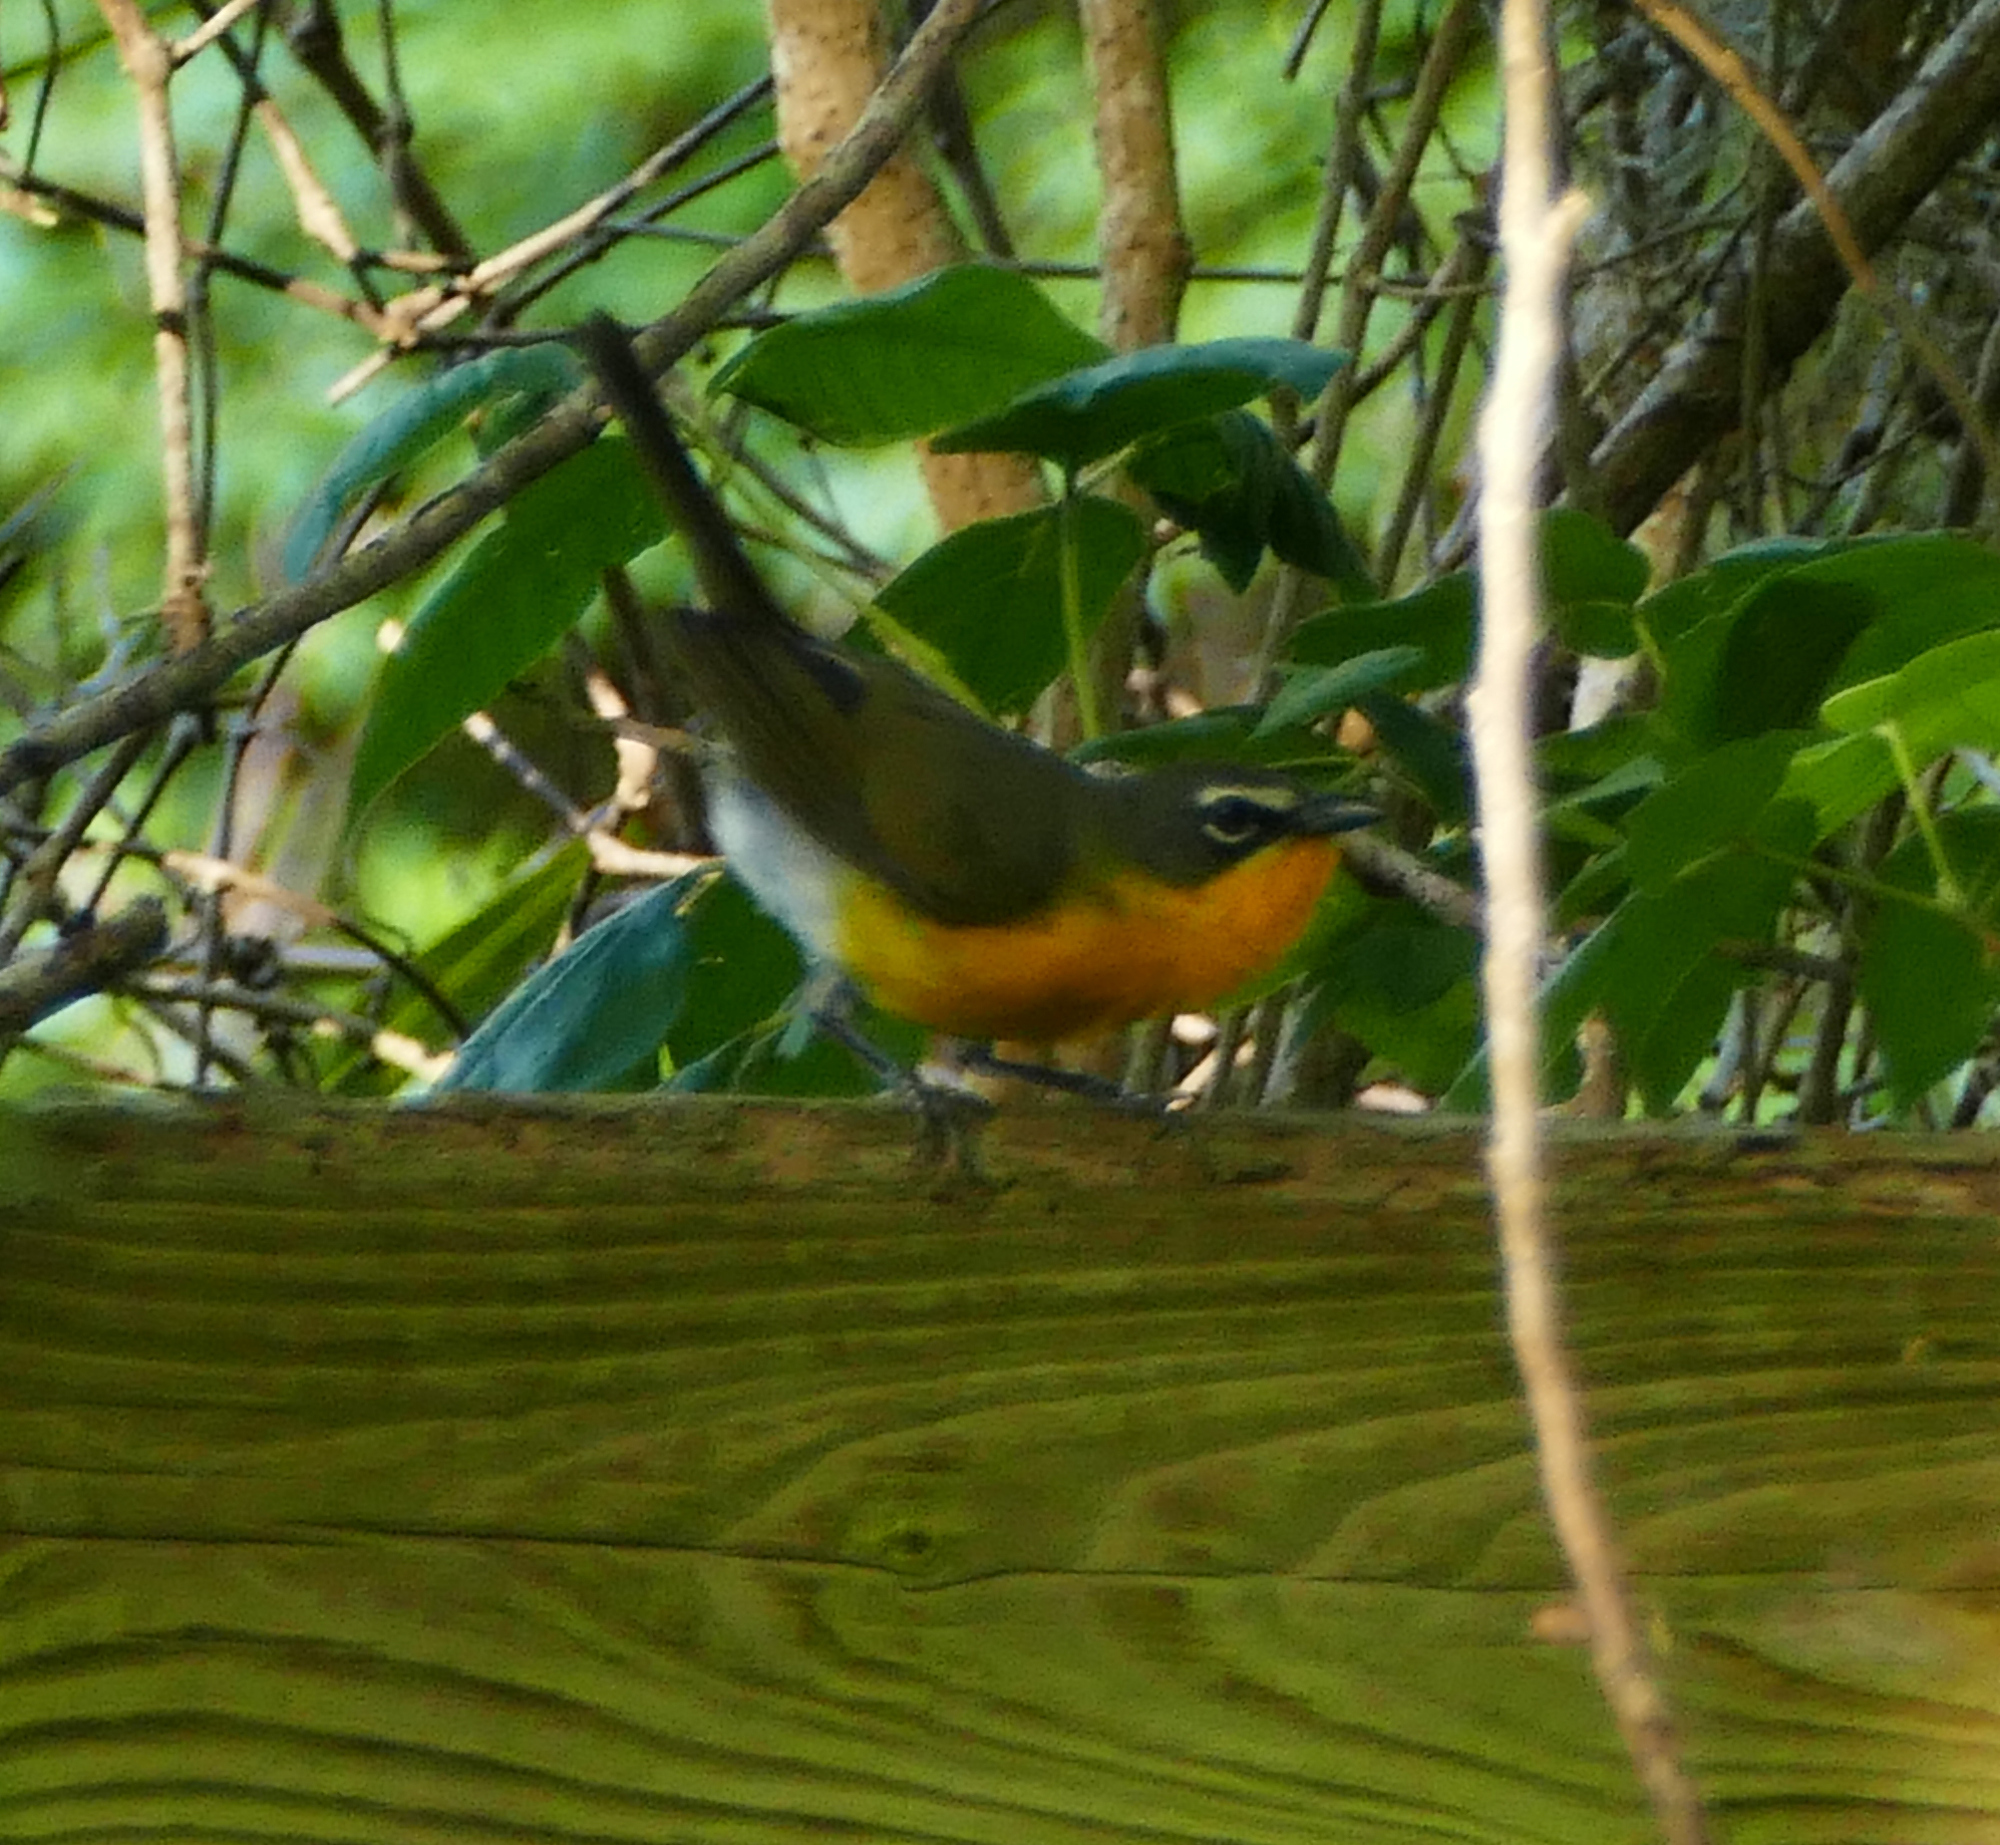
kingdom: Animalia
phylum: Chordata
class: Aves
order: Passeriformes
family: Parulidae
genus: Icteria
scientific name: Icteria virens
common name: Yellow-breasted chat
